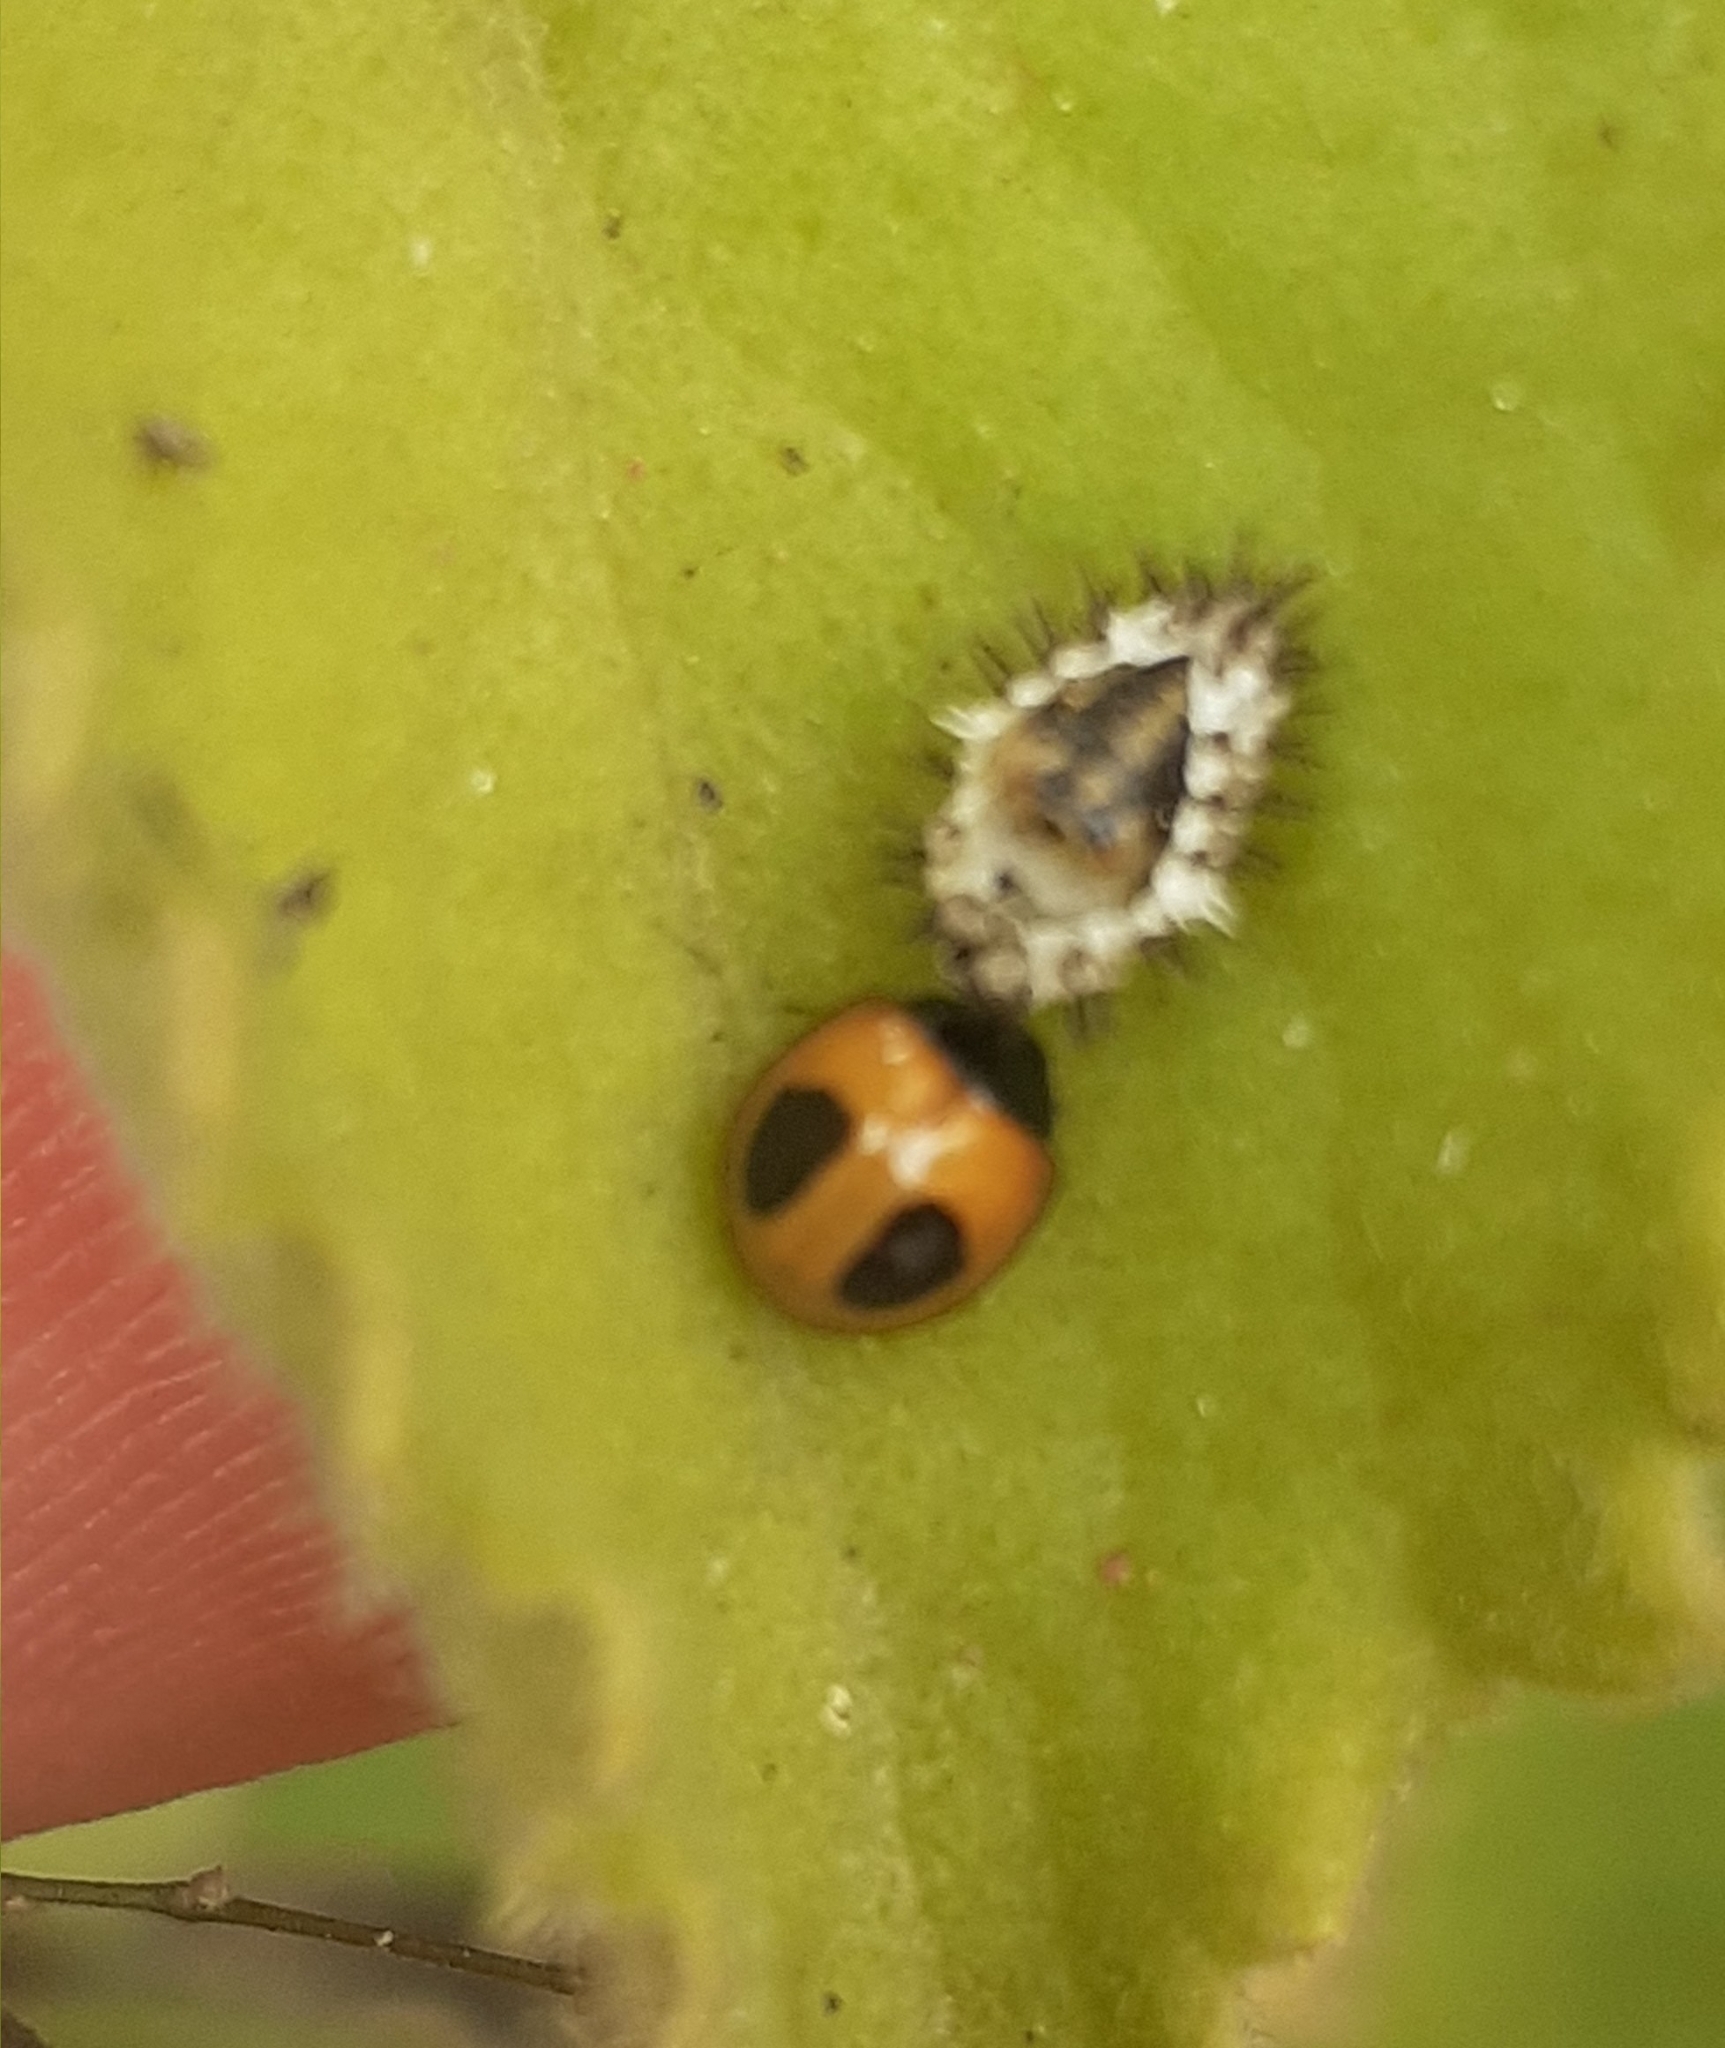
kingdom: Animalia
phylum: Arthropoda
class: Insecta
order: Coleoptera
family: Coccinellidae
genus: Zagreus
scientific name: Zagreus bimaculosus
